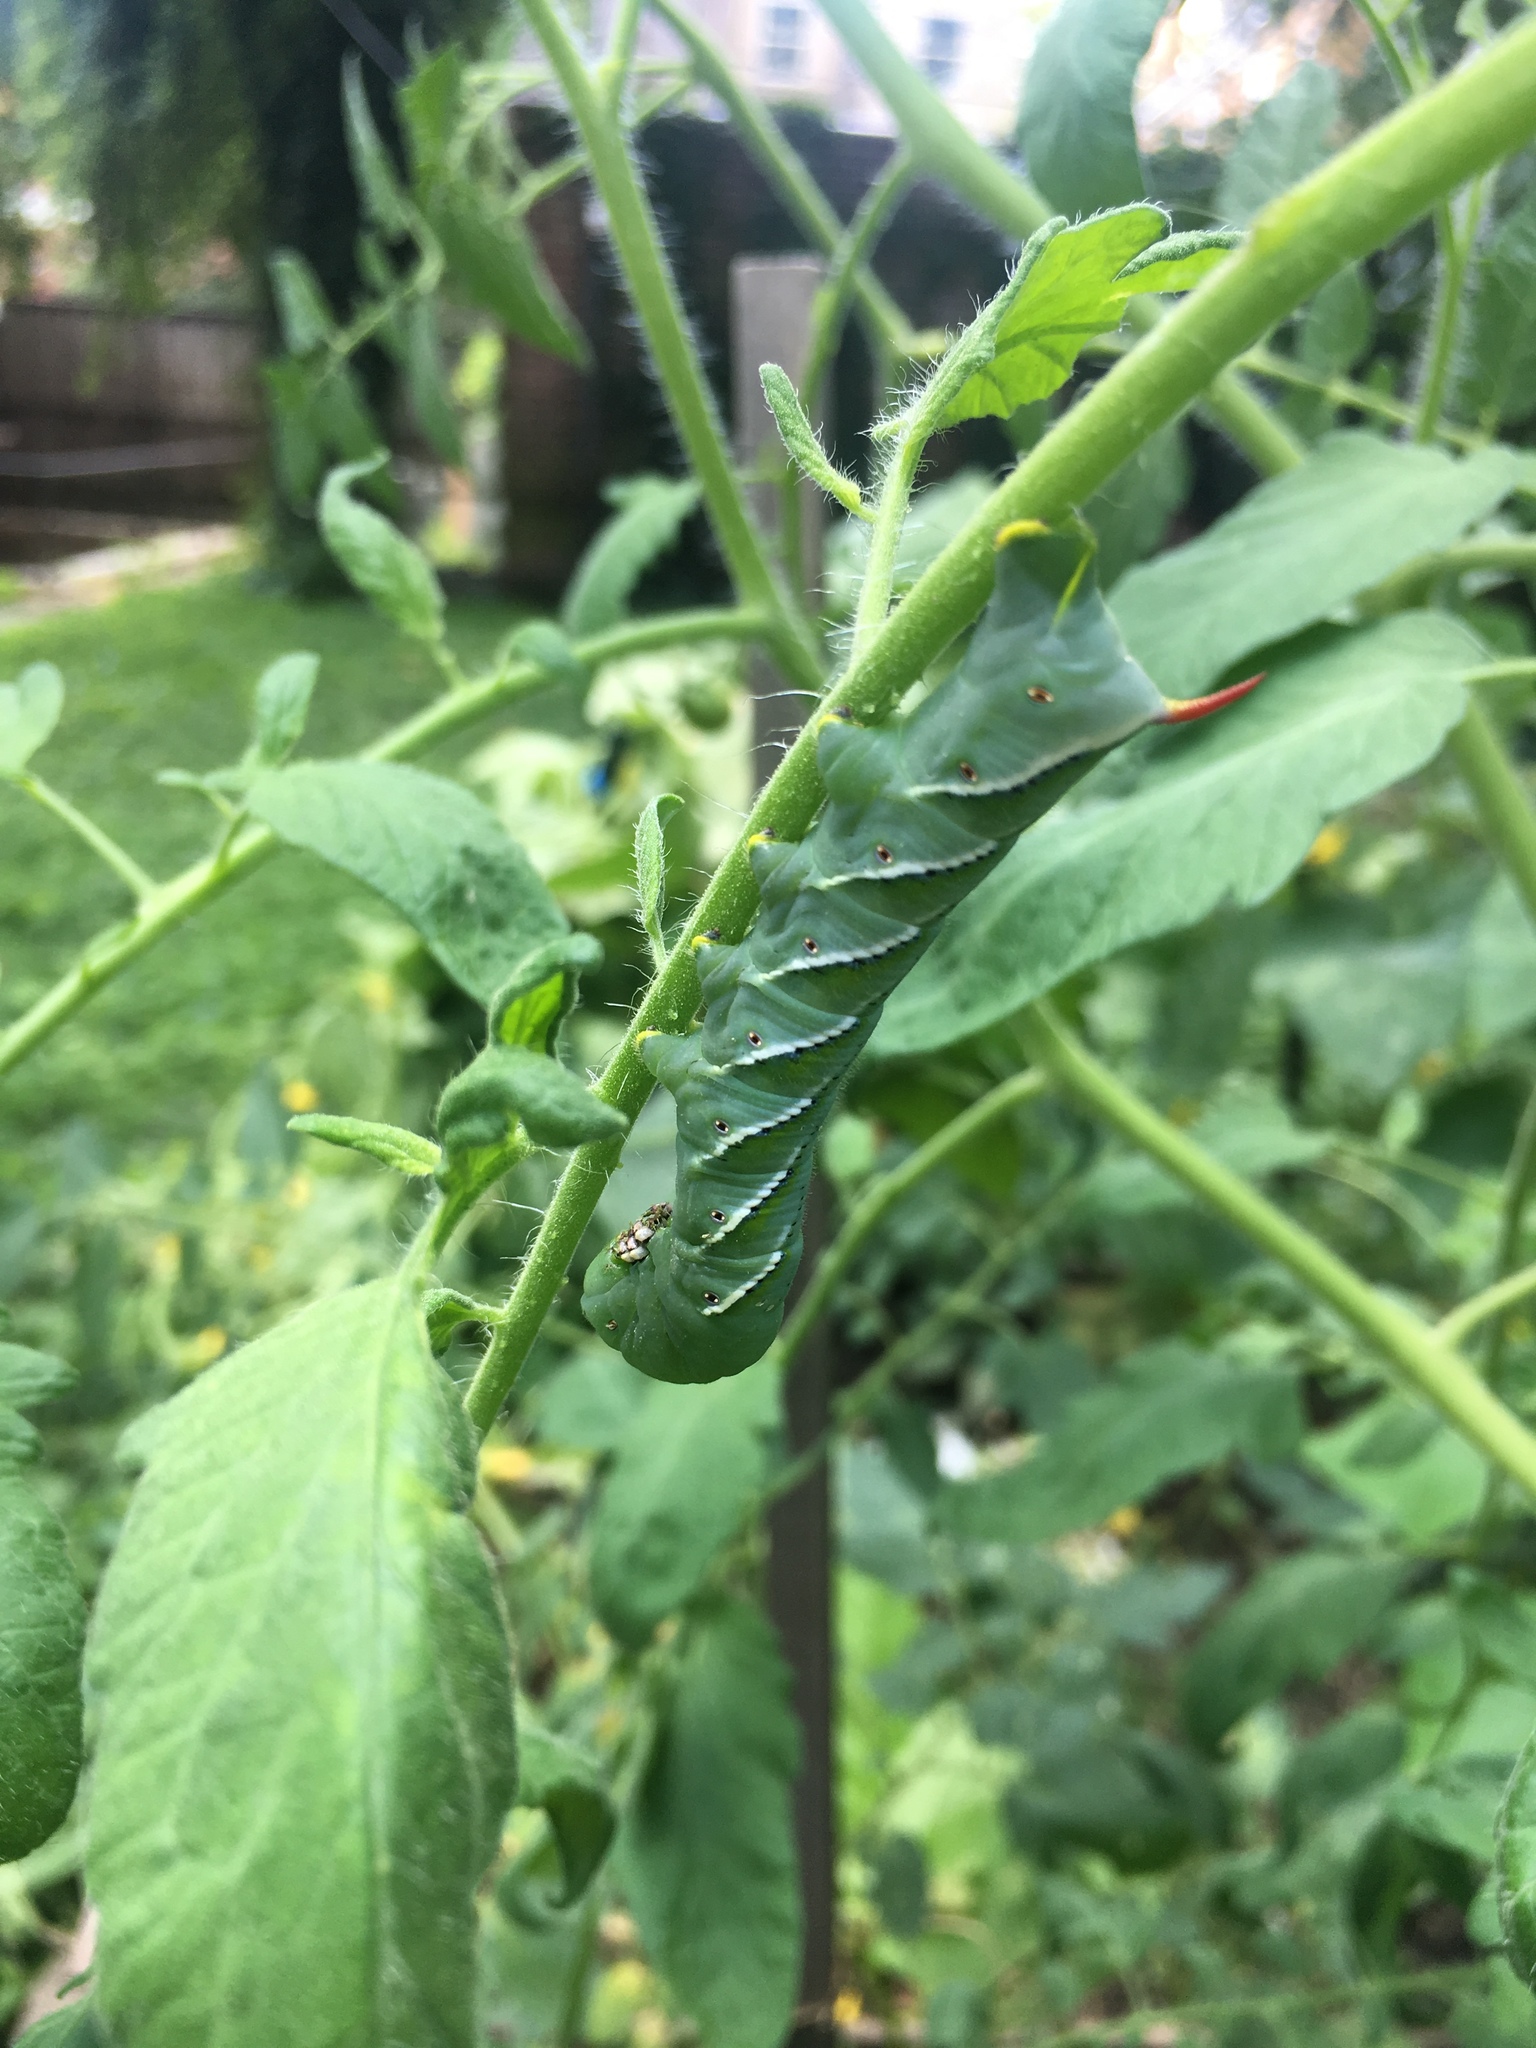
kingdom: Animalia
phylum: Arthropoda
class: Insecta
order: Lepidoptera
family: Sphingidae
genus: Manduca
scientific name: Manduca sexta
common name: Carolina sphinx
